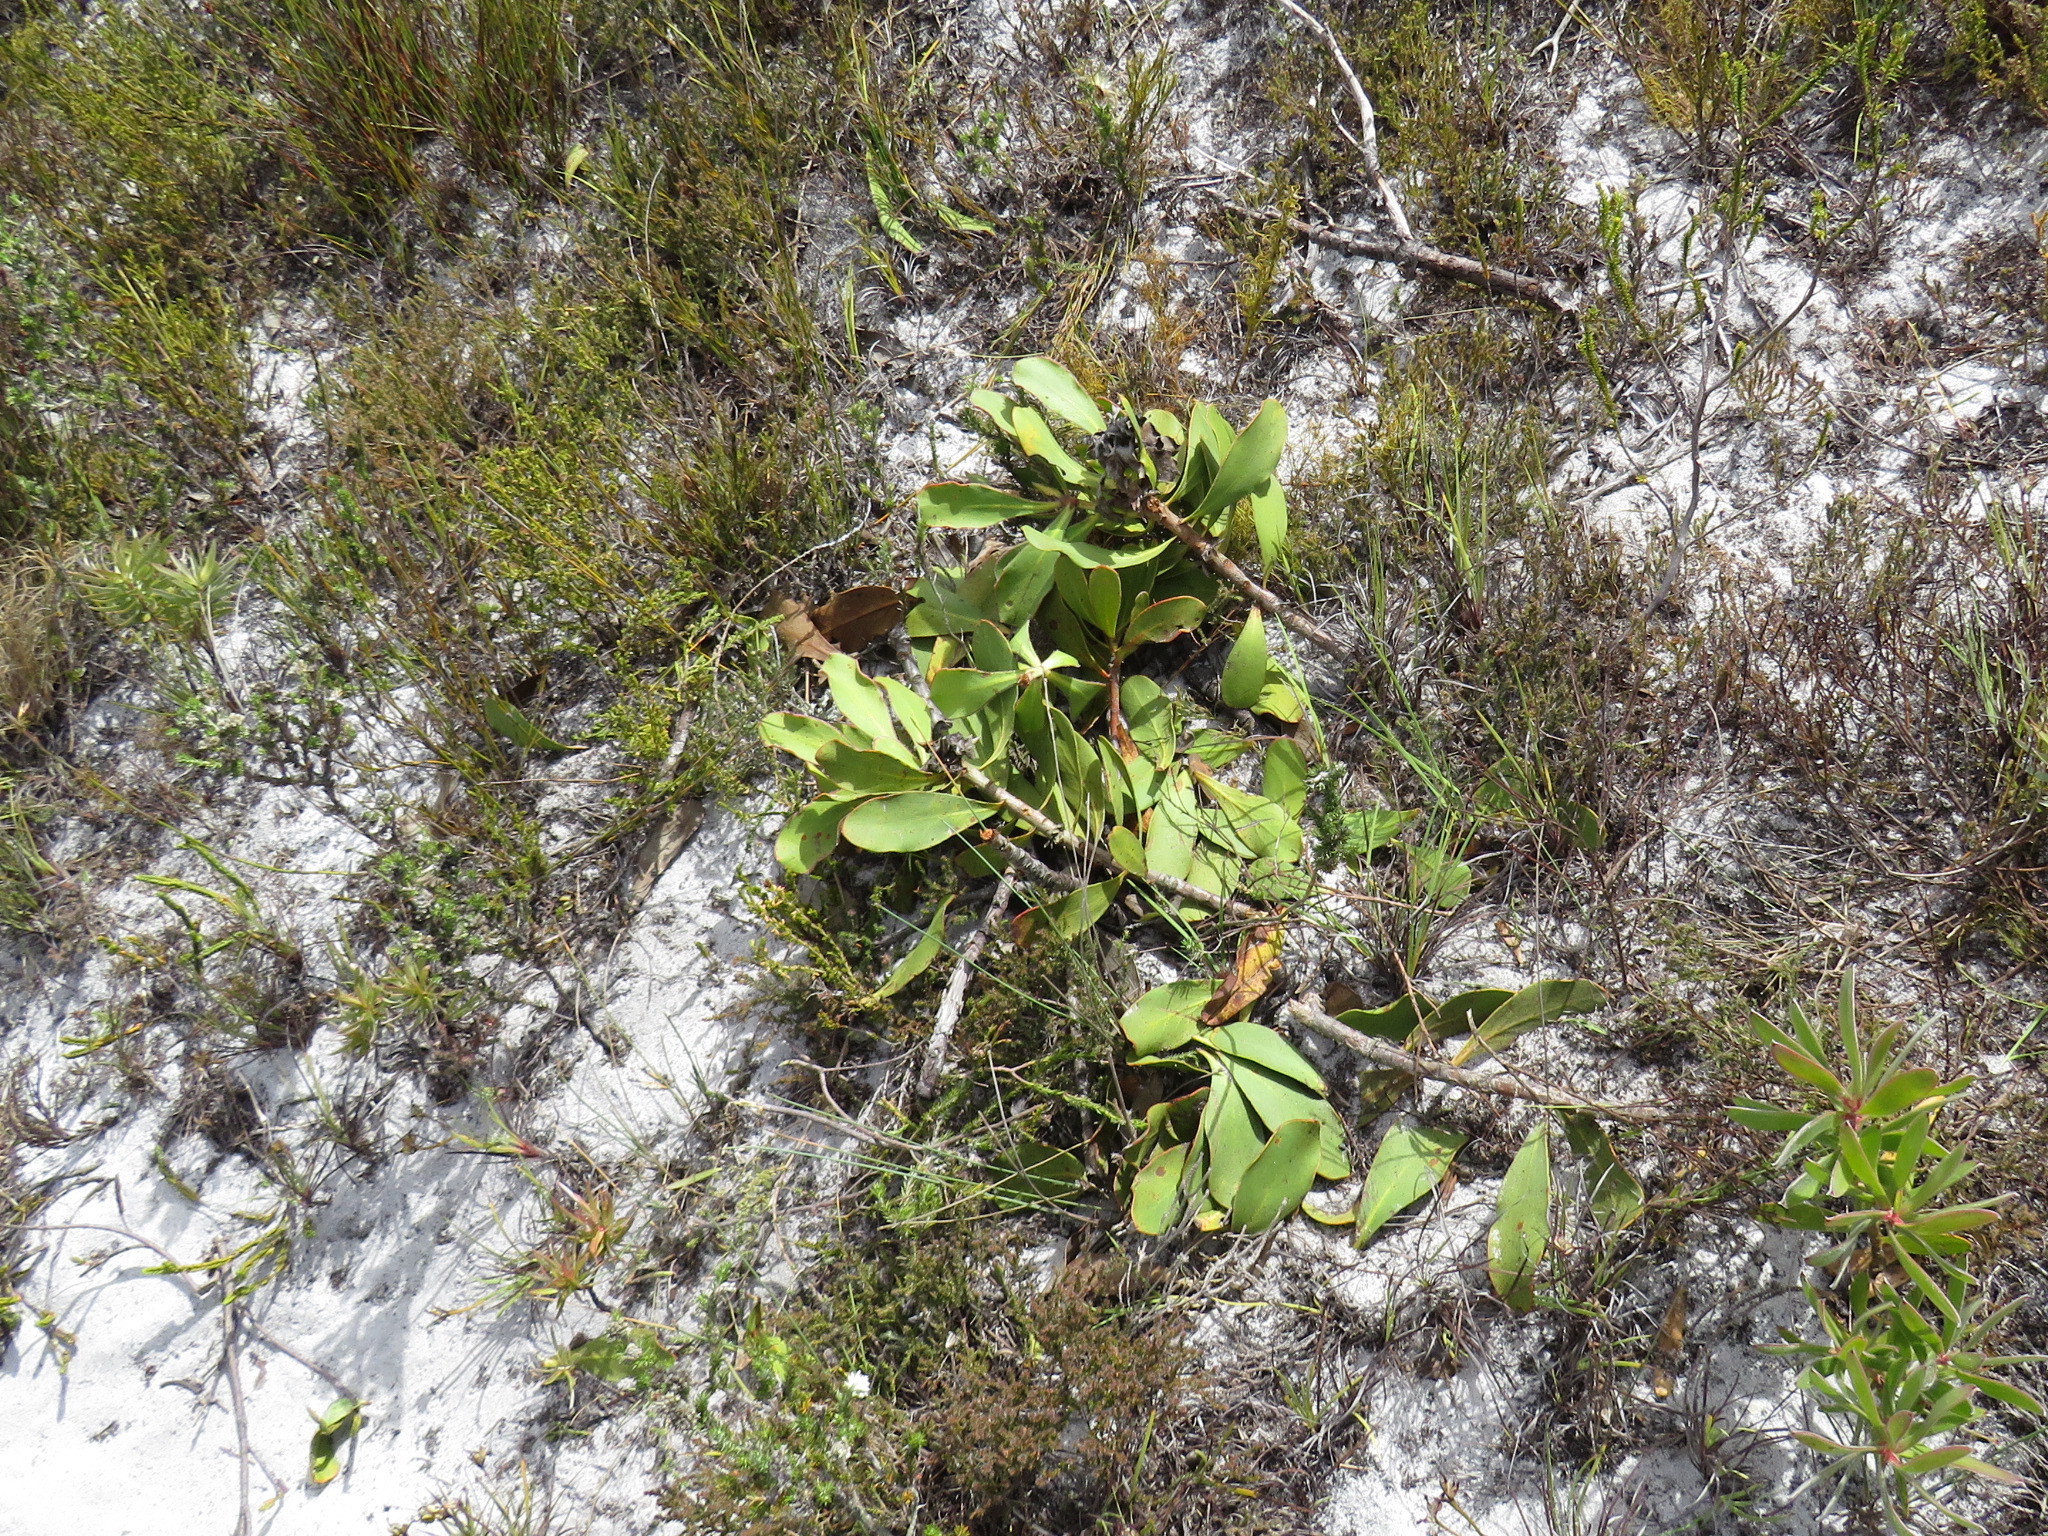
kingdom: Plantae
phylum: Tracheophyta
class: Magnoliopsida
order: Proteales
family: Proteaceae
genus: Protea
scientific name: Protea speciosa
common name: Brown-beard sugarbush
